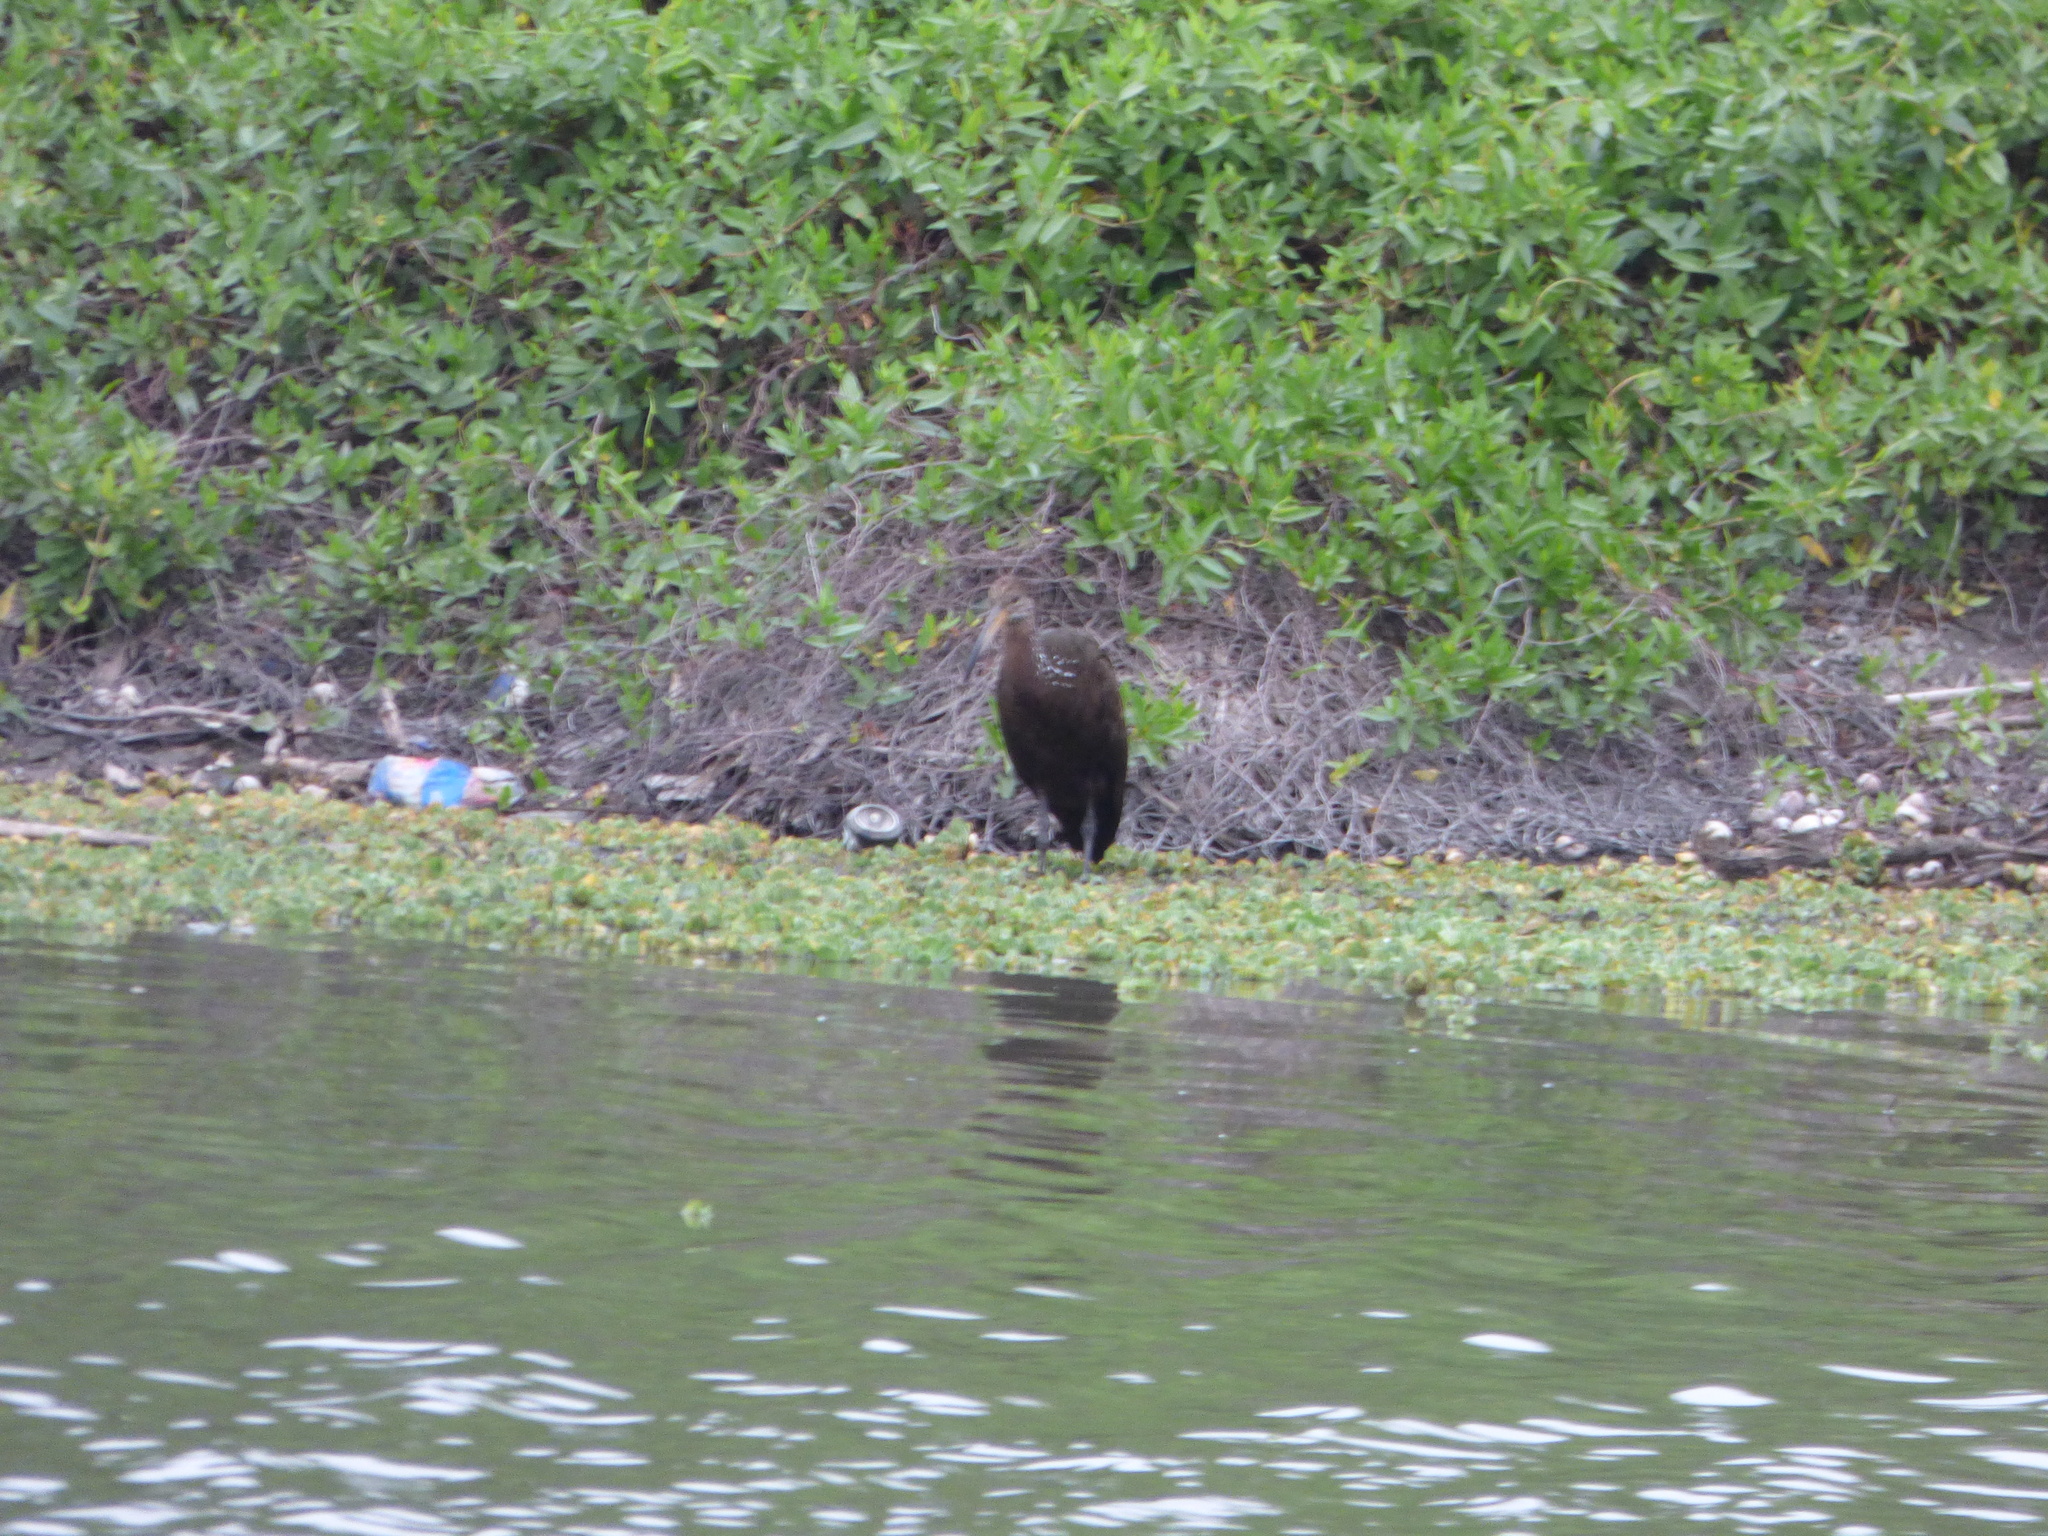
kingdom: Animalia
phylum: Chordata
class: Aves
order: Gruiformes
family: Aramidae
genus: Aramus
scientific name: Aramus guarauna
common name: Limpkin
